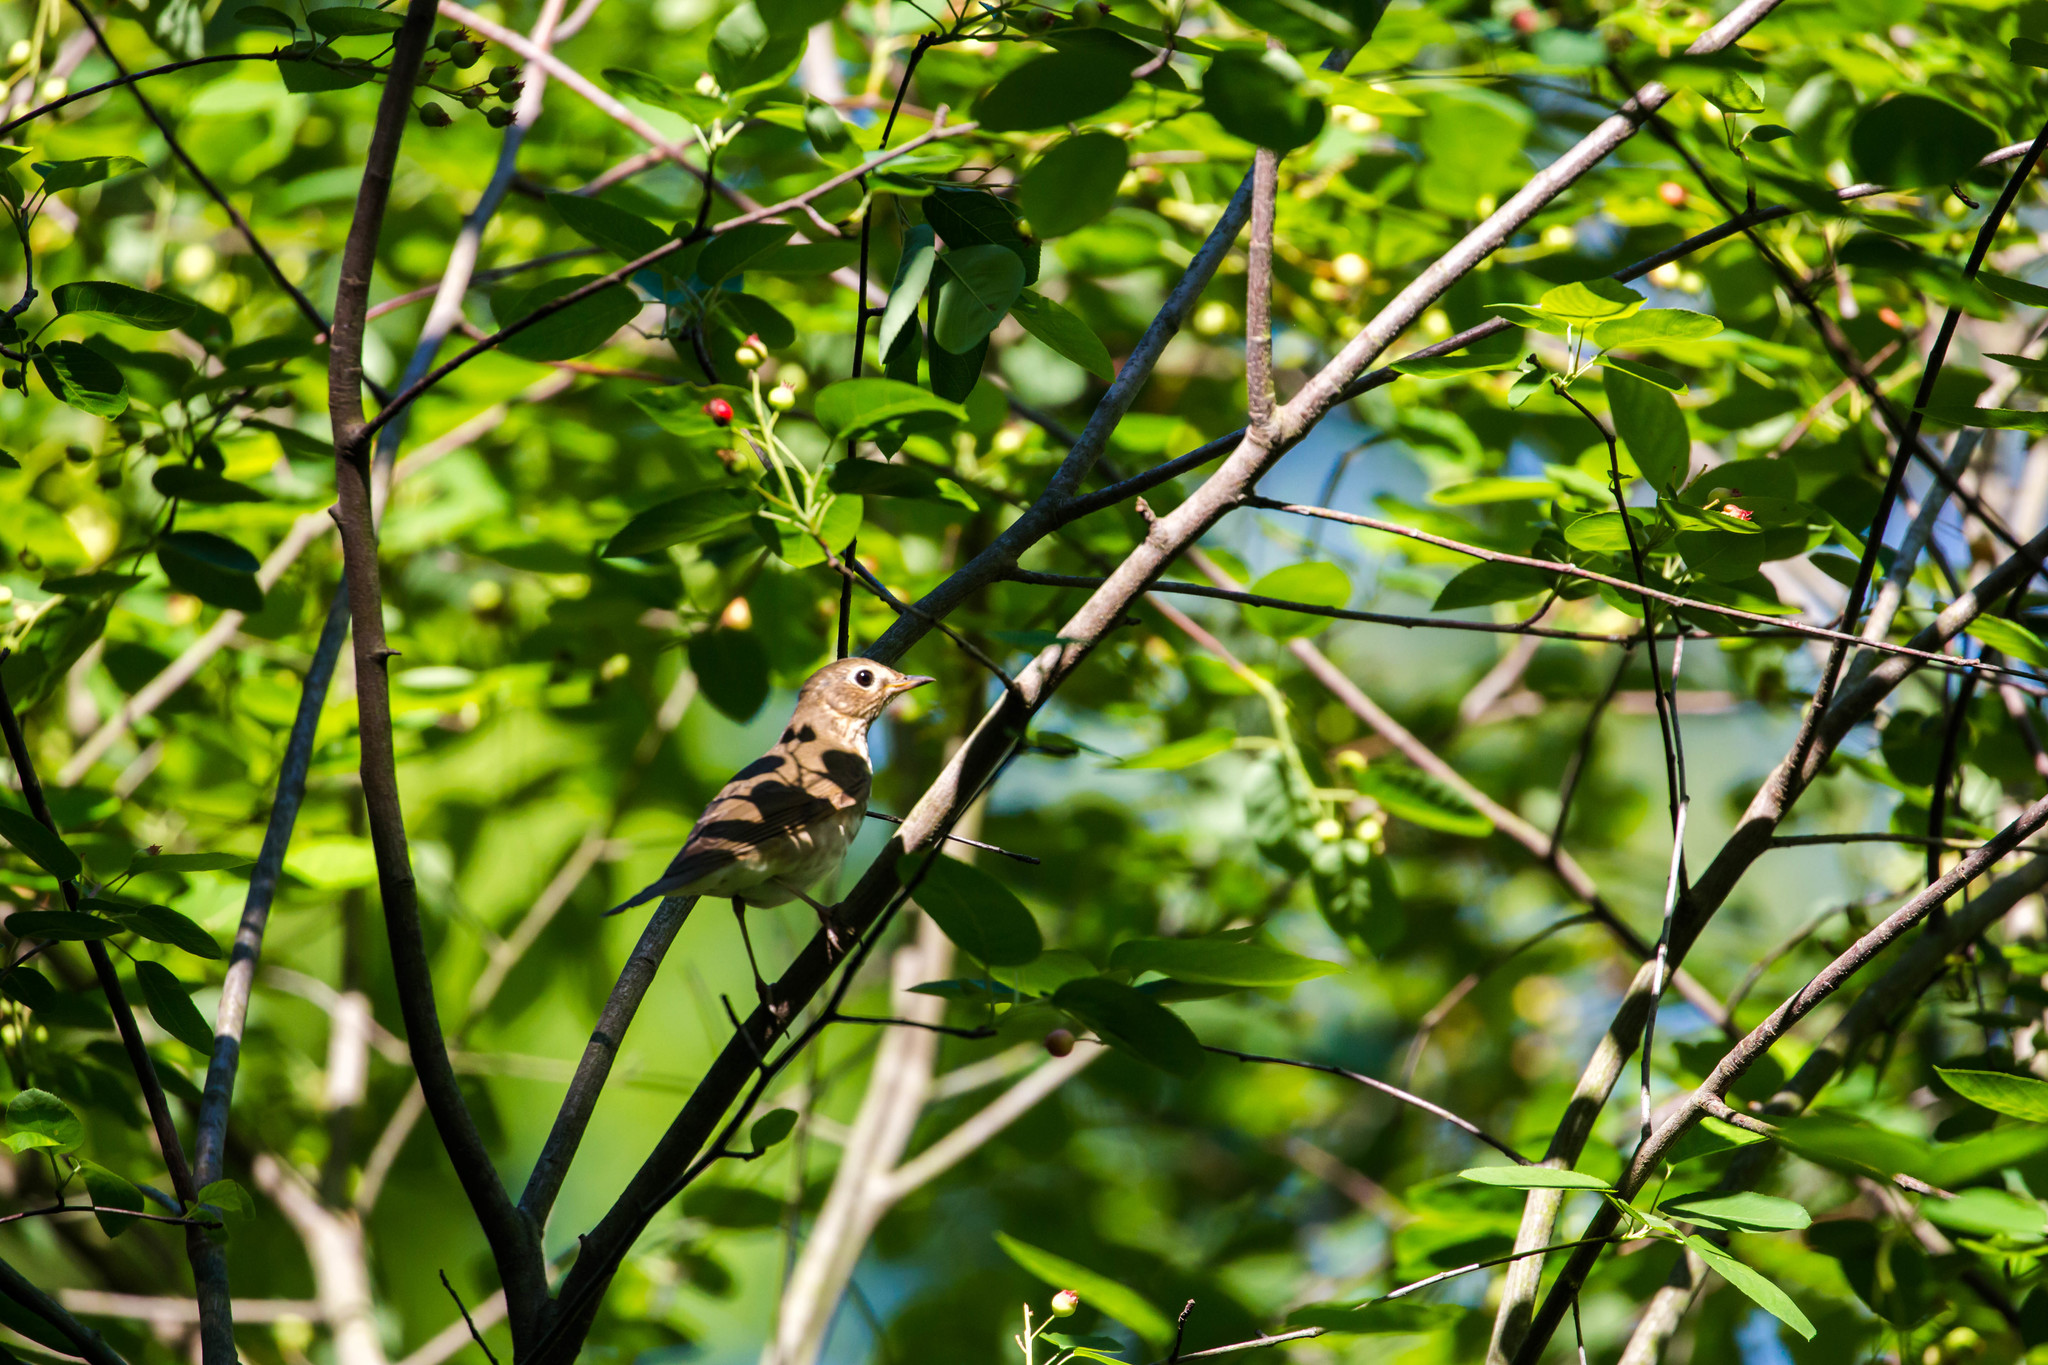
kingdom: Animalia
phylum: Chordata
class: Aves
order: Passeriformes
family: Turdidae
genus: Catharus
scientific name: Catharus ustulatus
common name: Swainson's thrush
